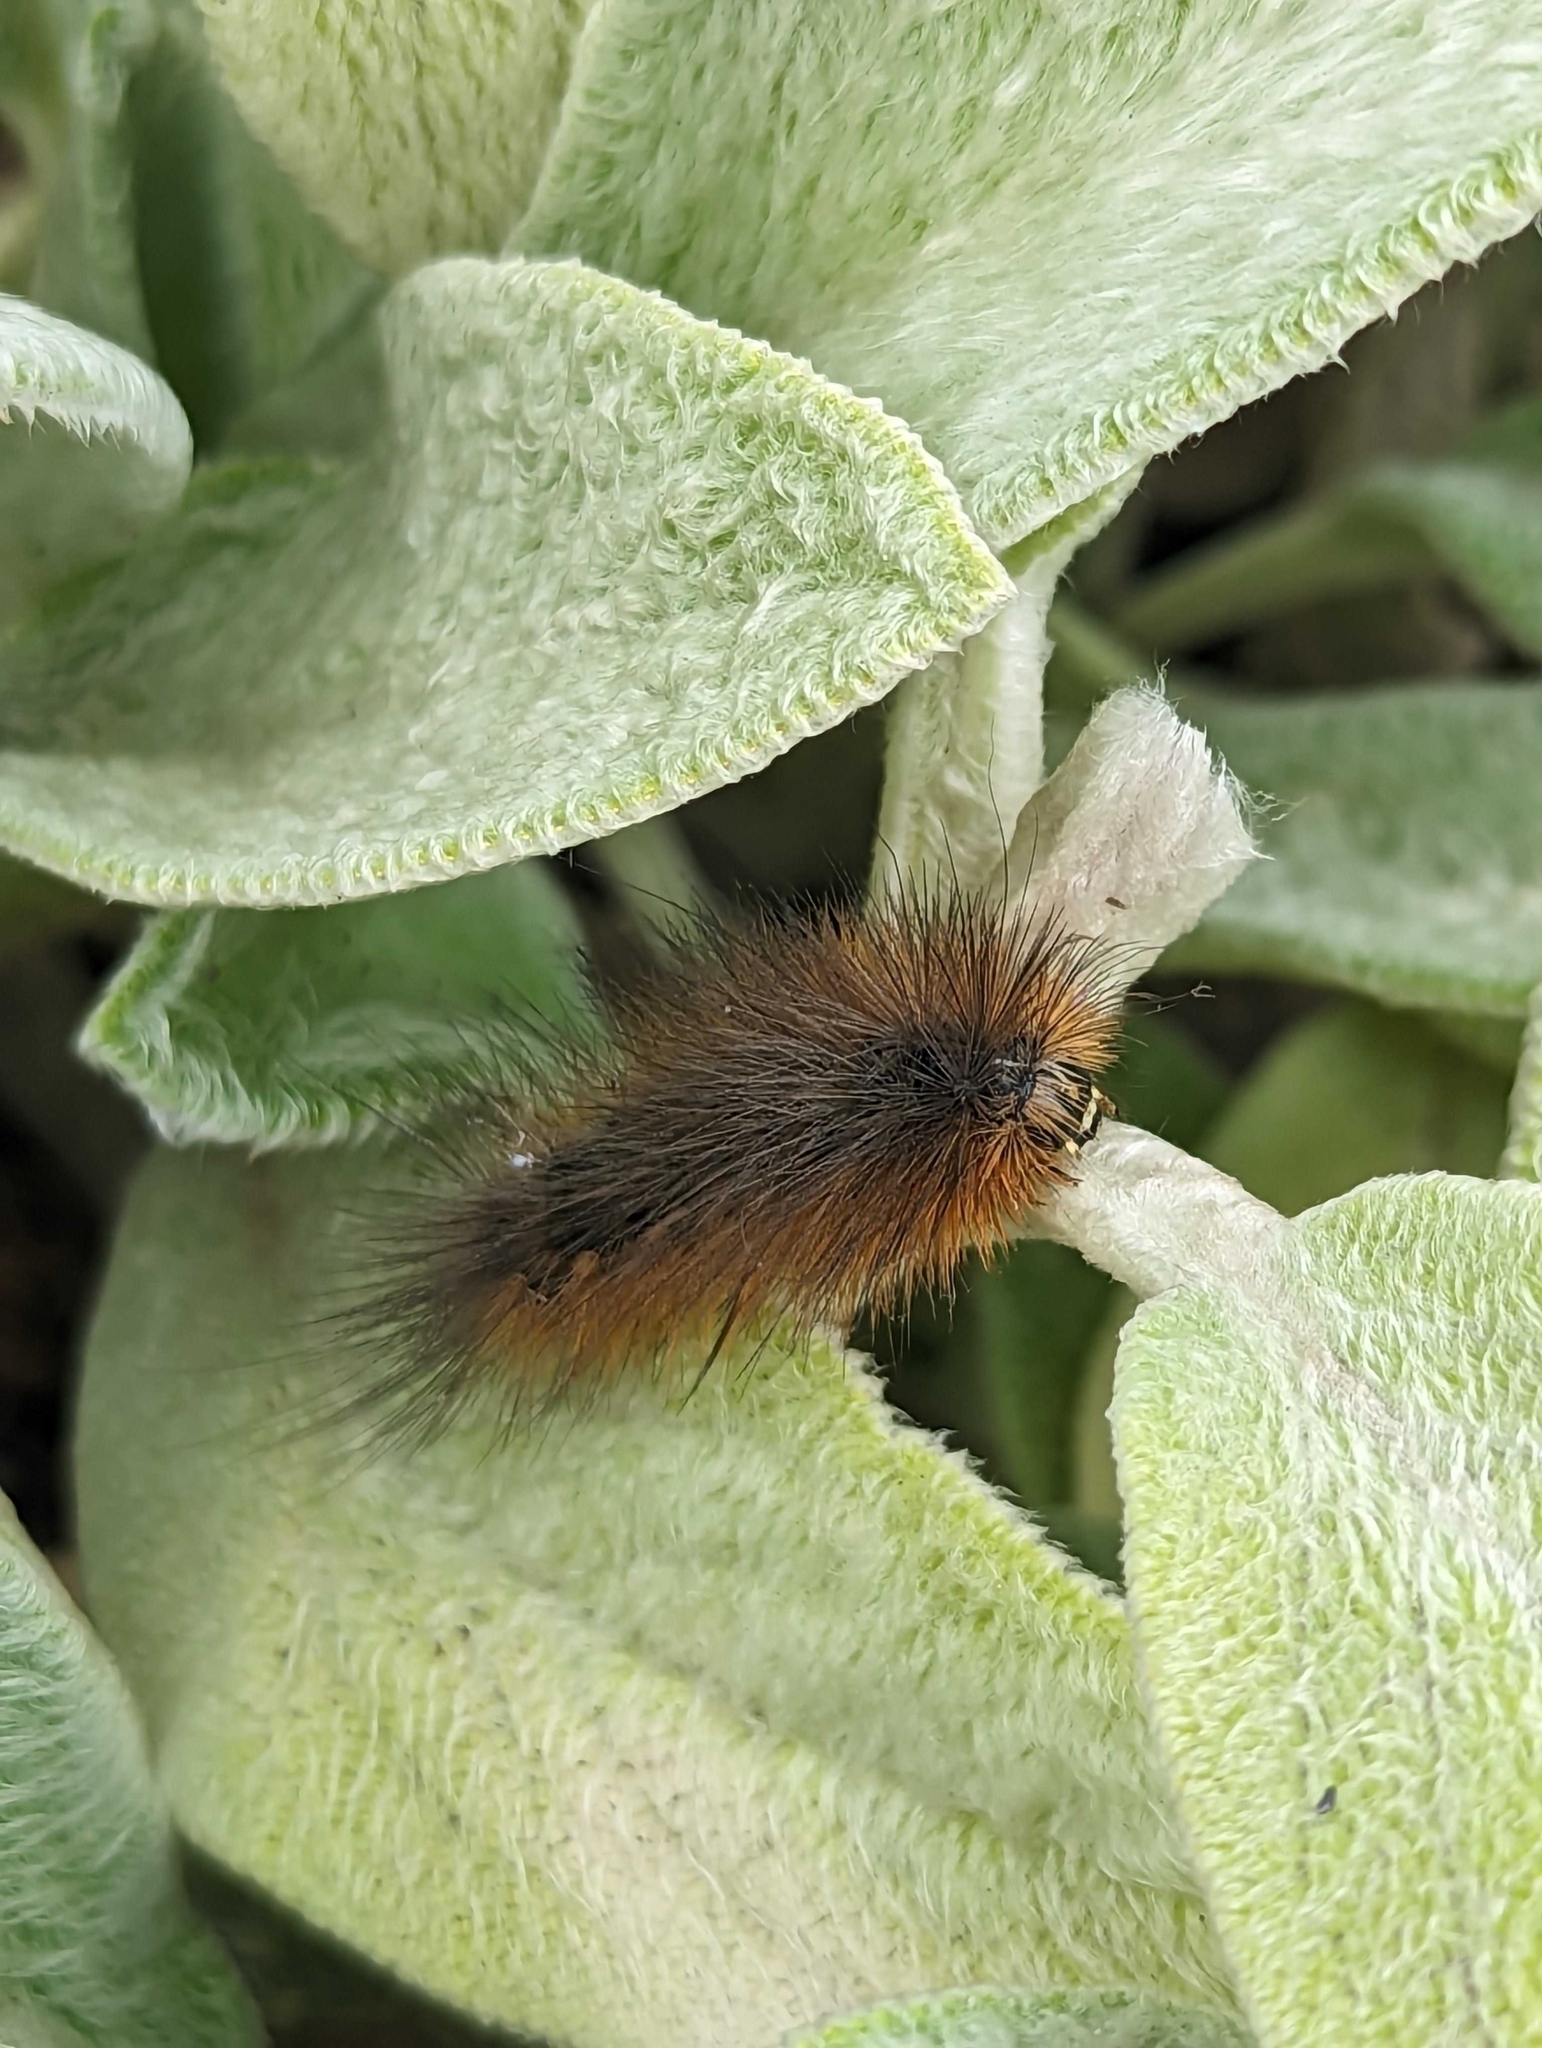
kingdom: Animalia
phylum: Arthropoda
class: Insecta
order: Lepidoptera
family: Erebidae
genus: Estigmene
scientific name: Estigmene acrea
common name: Salt marsh moth
